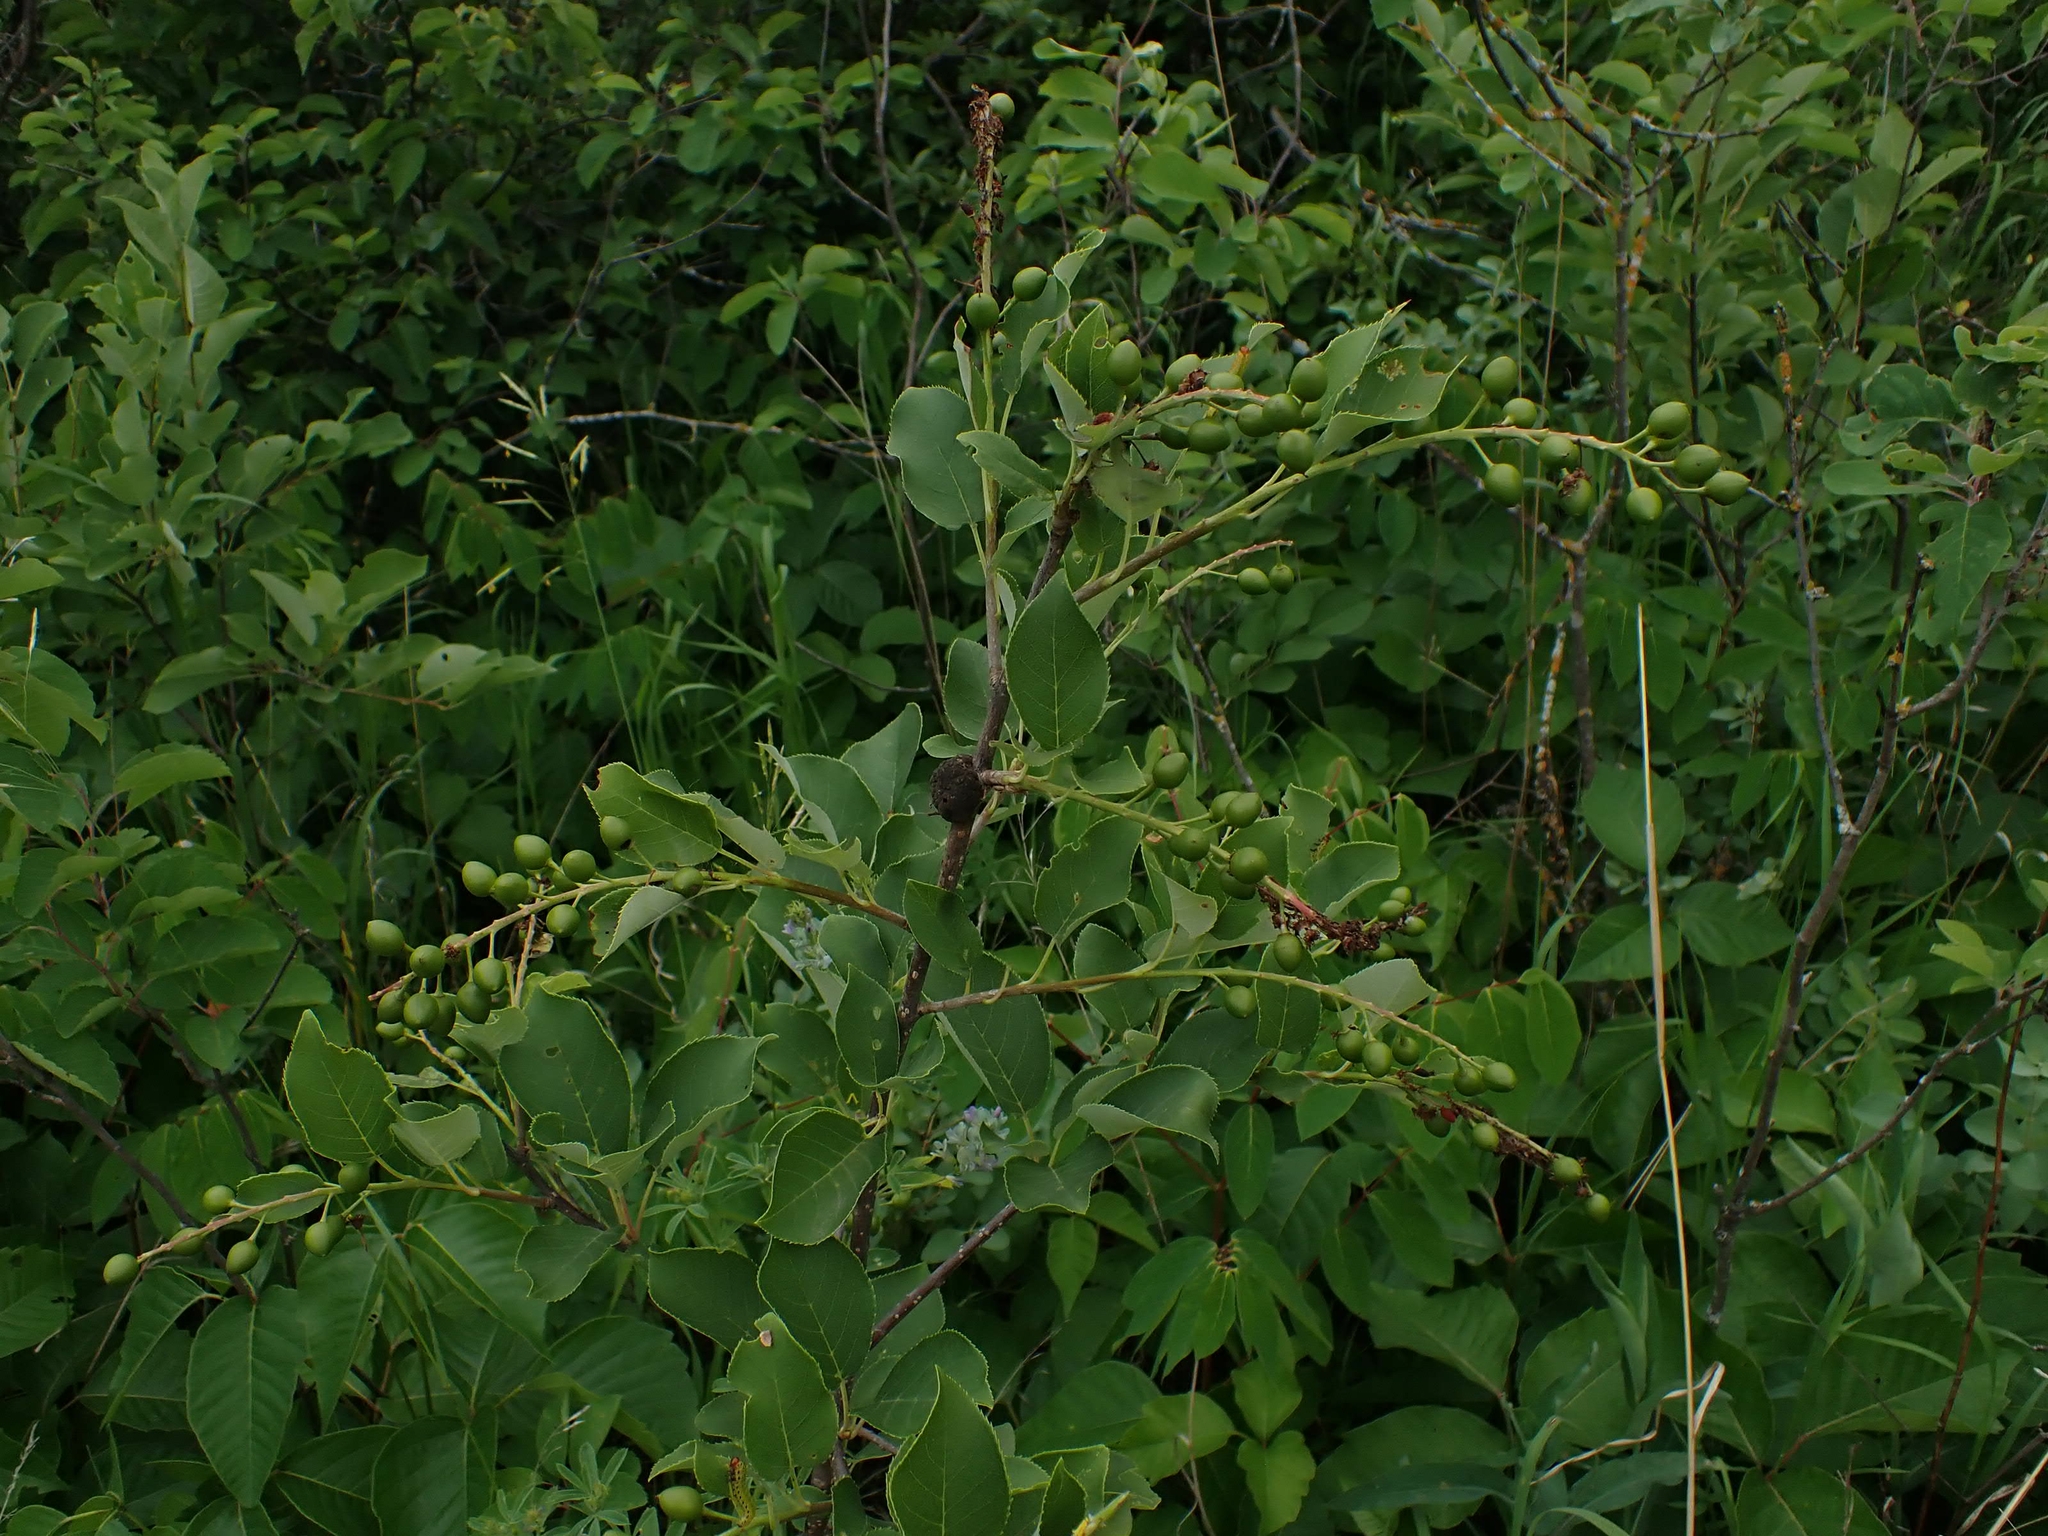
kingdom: Plantae
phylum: Tracheophyta
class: Magnoliopsida
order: Rosales
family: Rosaceae
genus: Prunus
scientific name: Prunus virginiana
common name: Chokecherry
